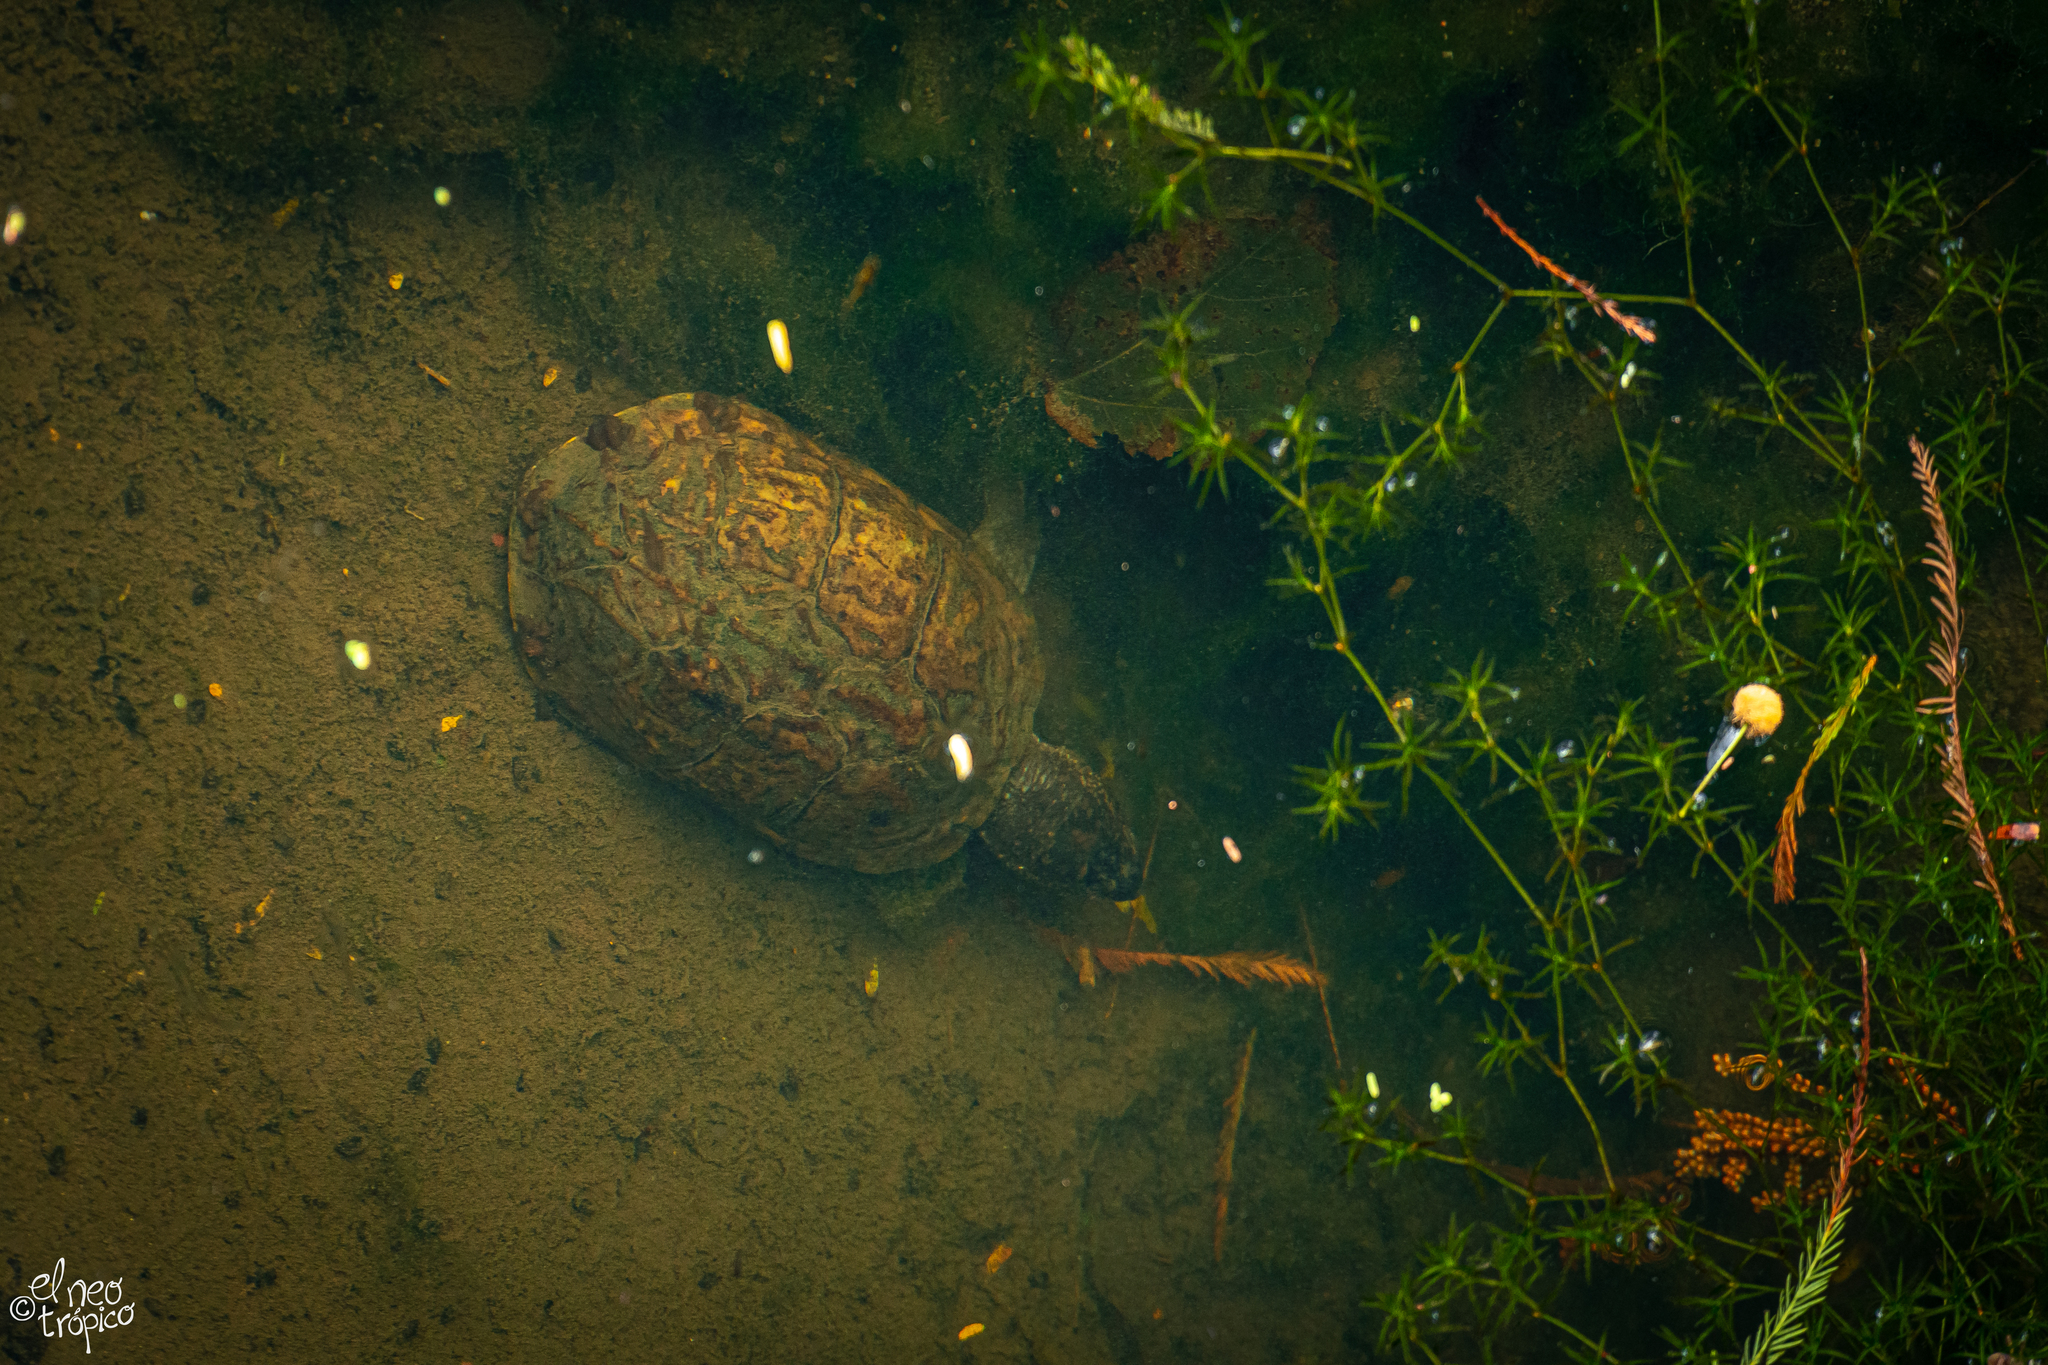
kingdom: Animalia
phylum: Chordata
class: Testudines
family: Kinosternidae
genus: Kinosternon
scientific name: Kinosternon scorpioides
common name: Scorpion mud turtle
